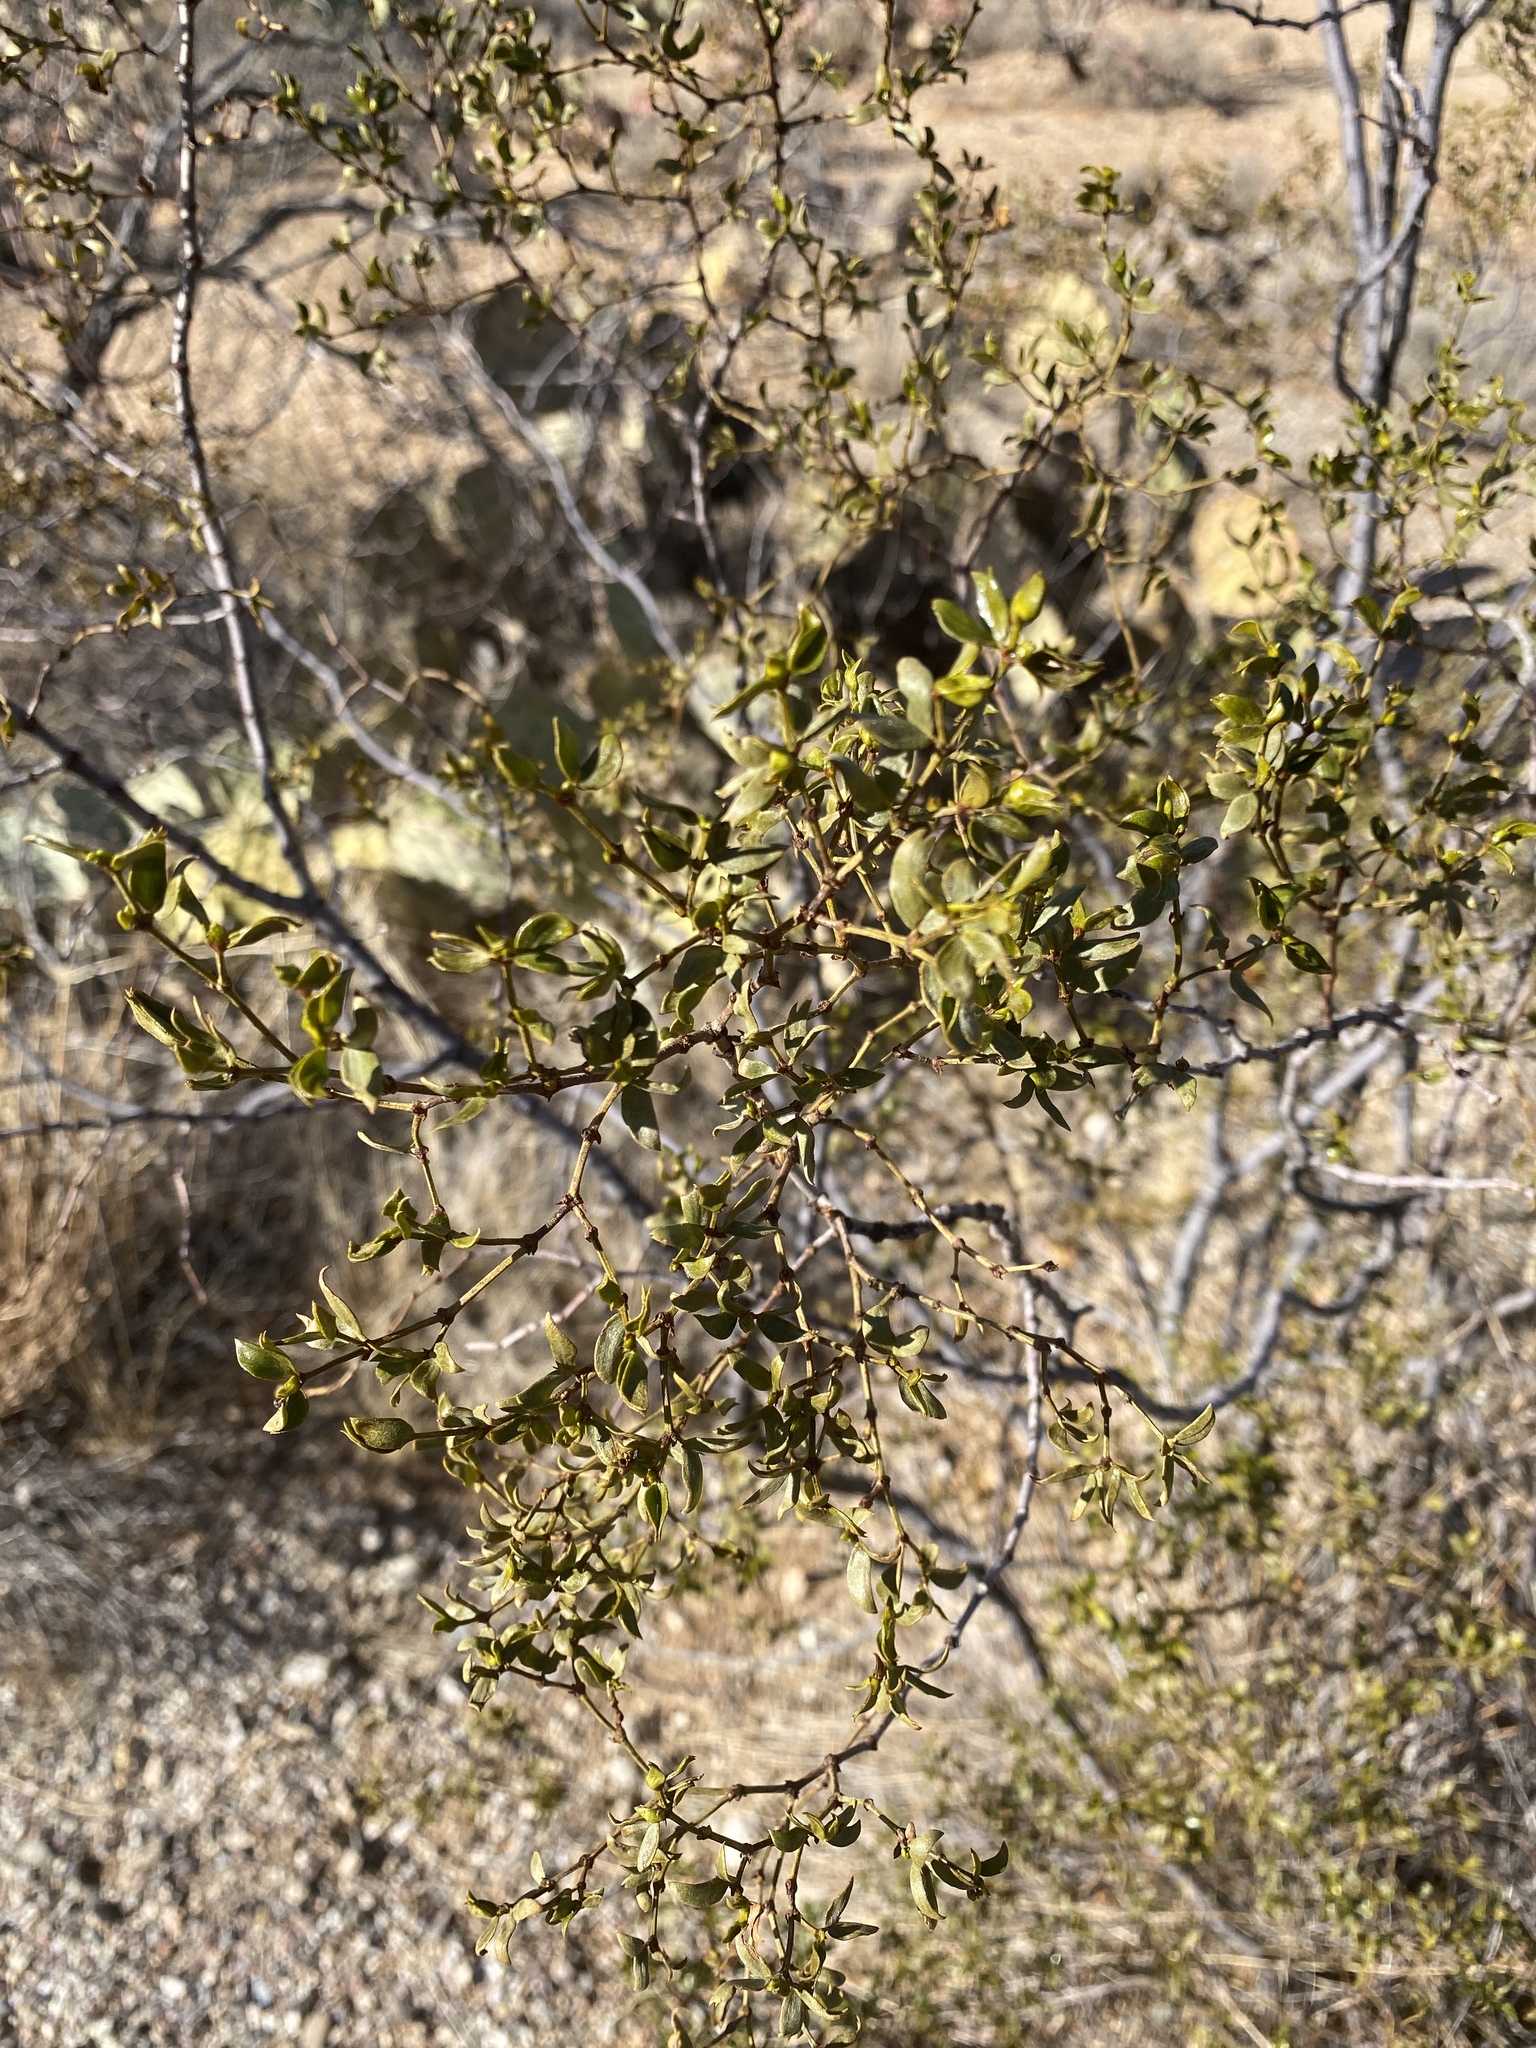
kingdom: Plantae
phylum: Tracheophyta
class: Magnoliopsida
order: Zygophyllales
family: Zygophyllaceae
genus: Larrea
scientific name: Larrea tridentata
